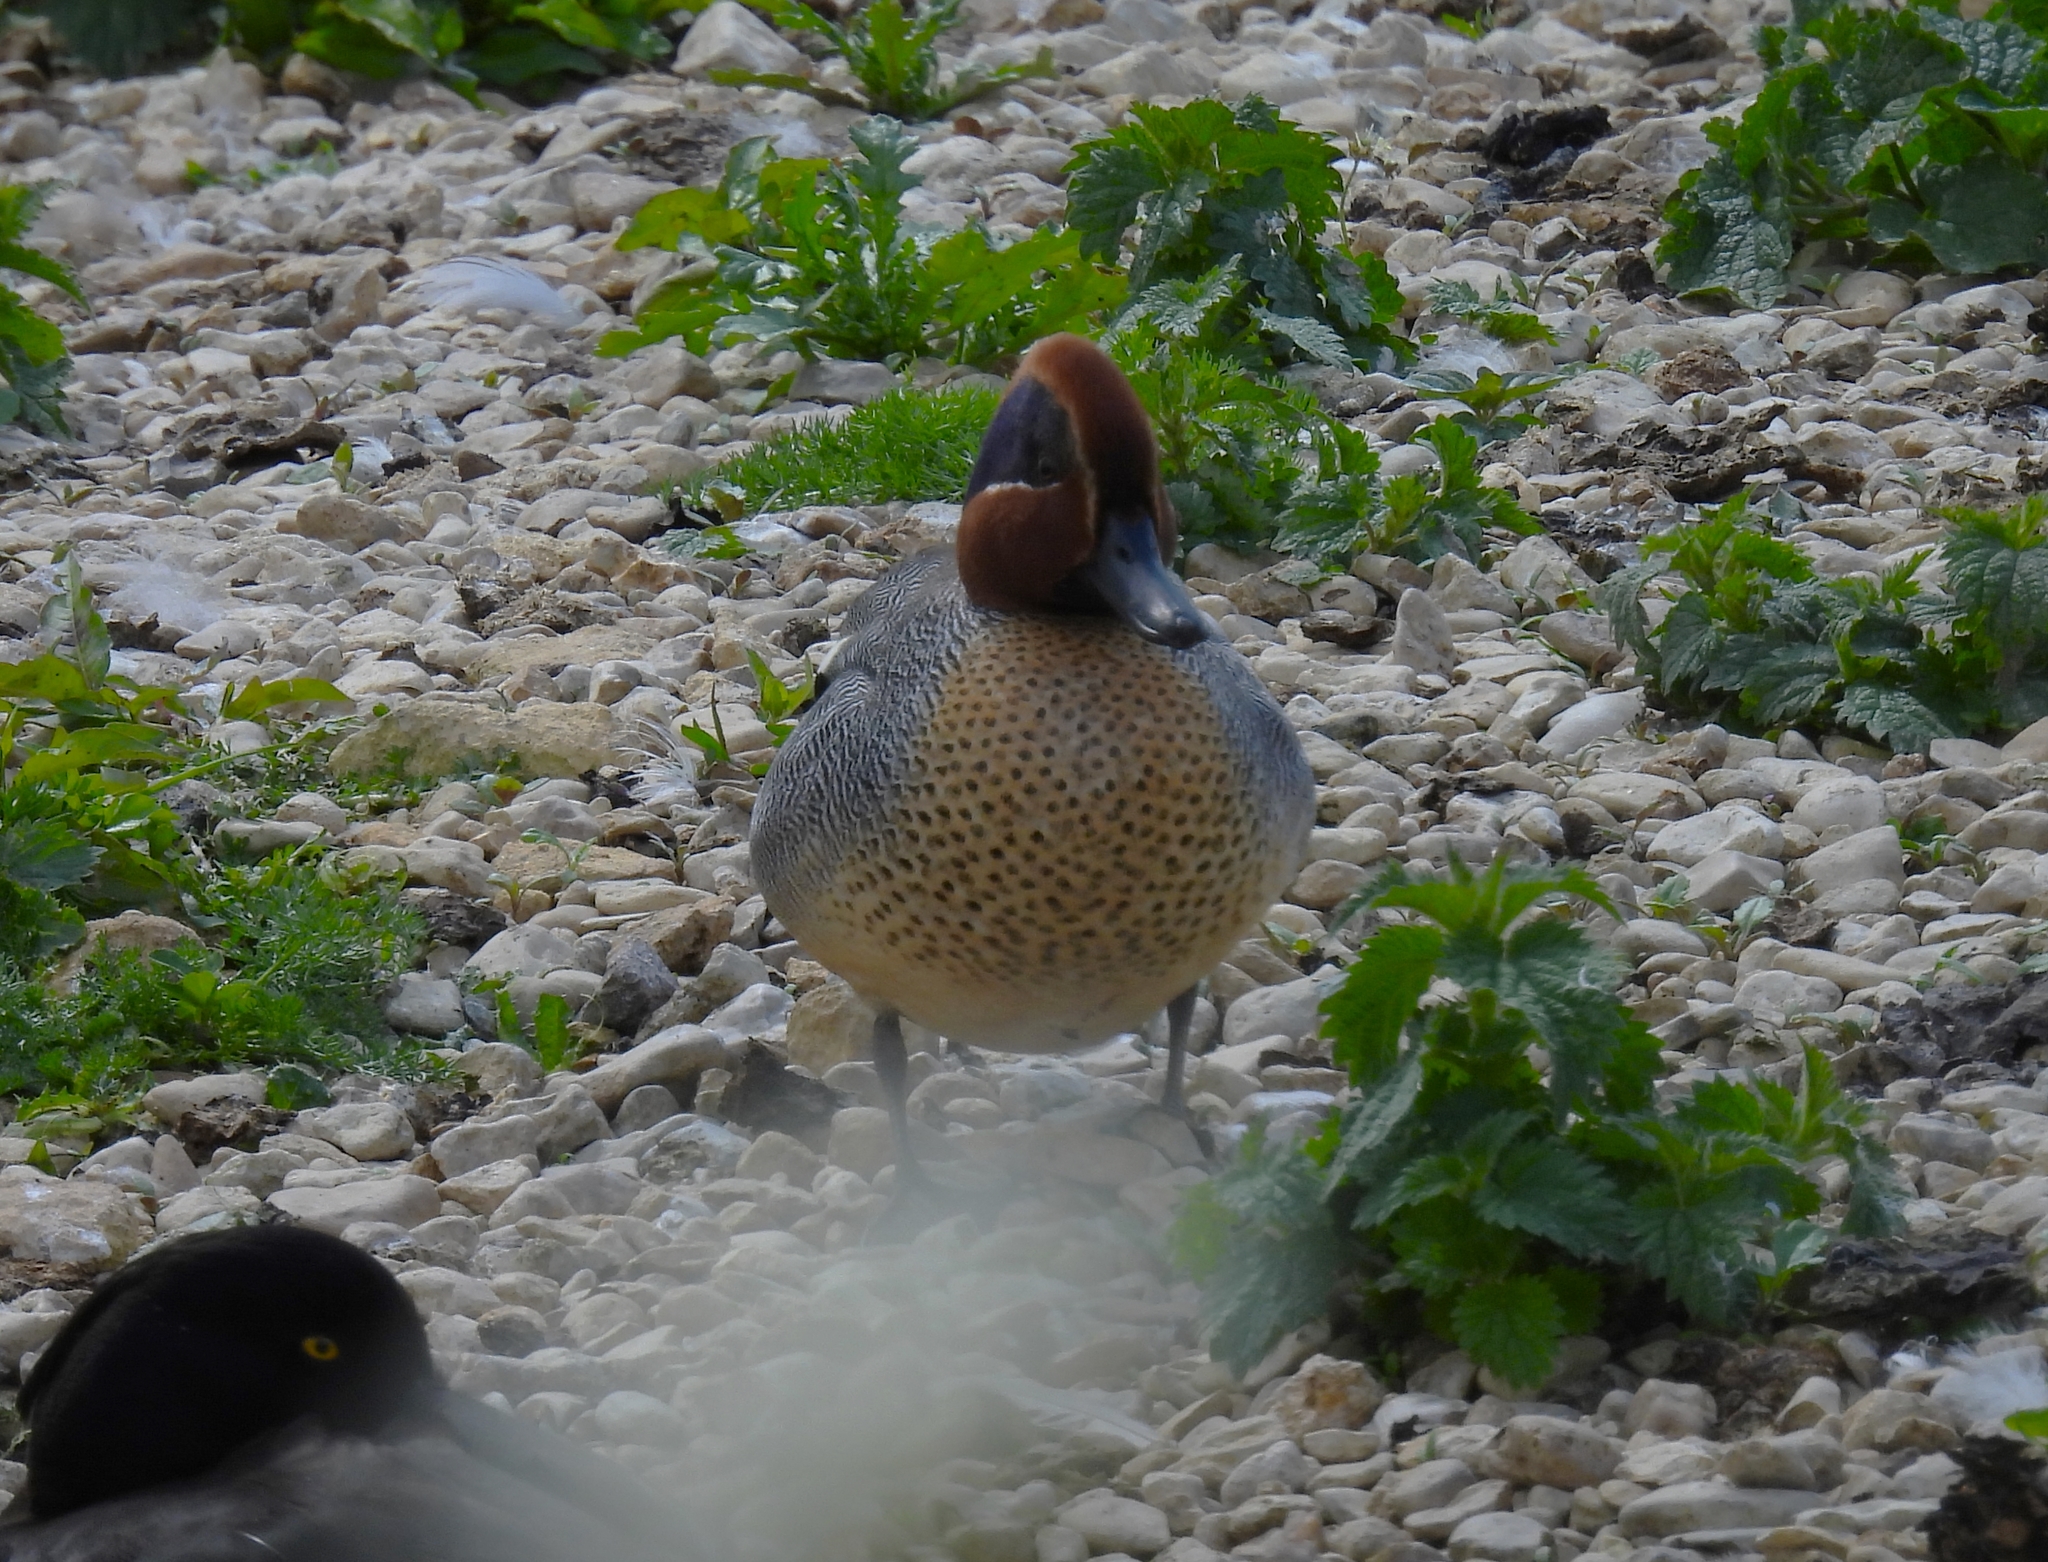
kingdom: Animalia
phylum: Chordata
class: Aves
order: Anseriformes
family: Anatidae
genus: Anas
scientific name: Anas crecca
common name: Eurasian teal
